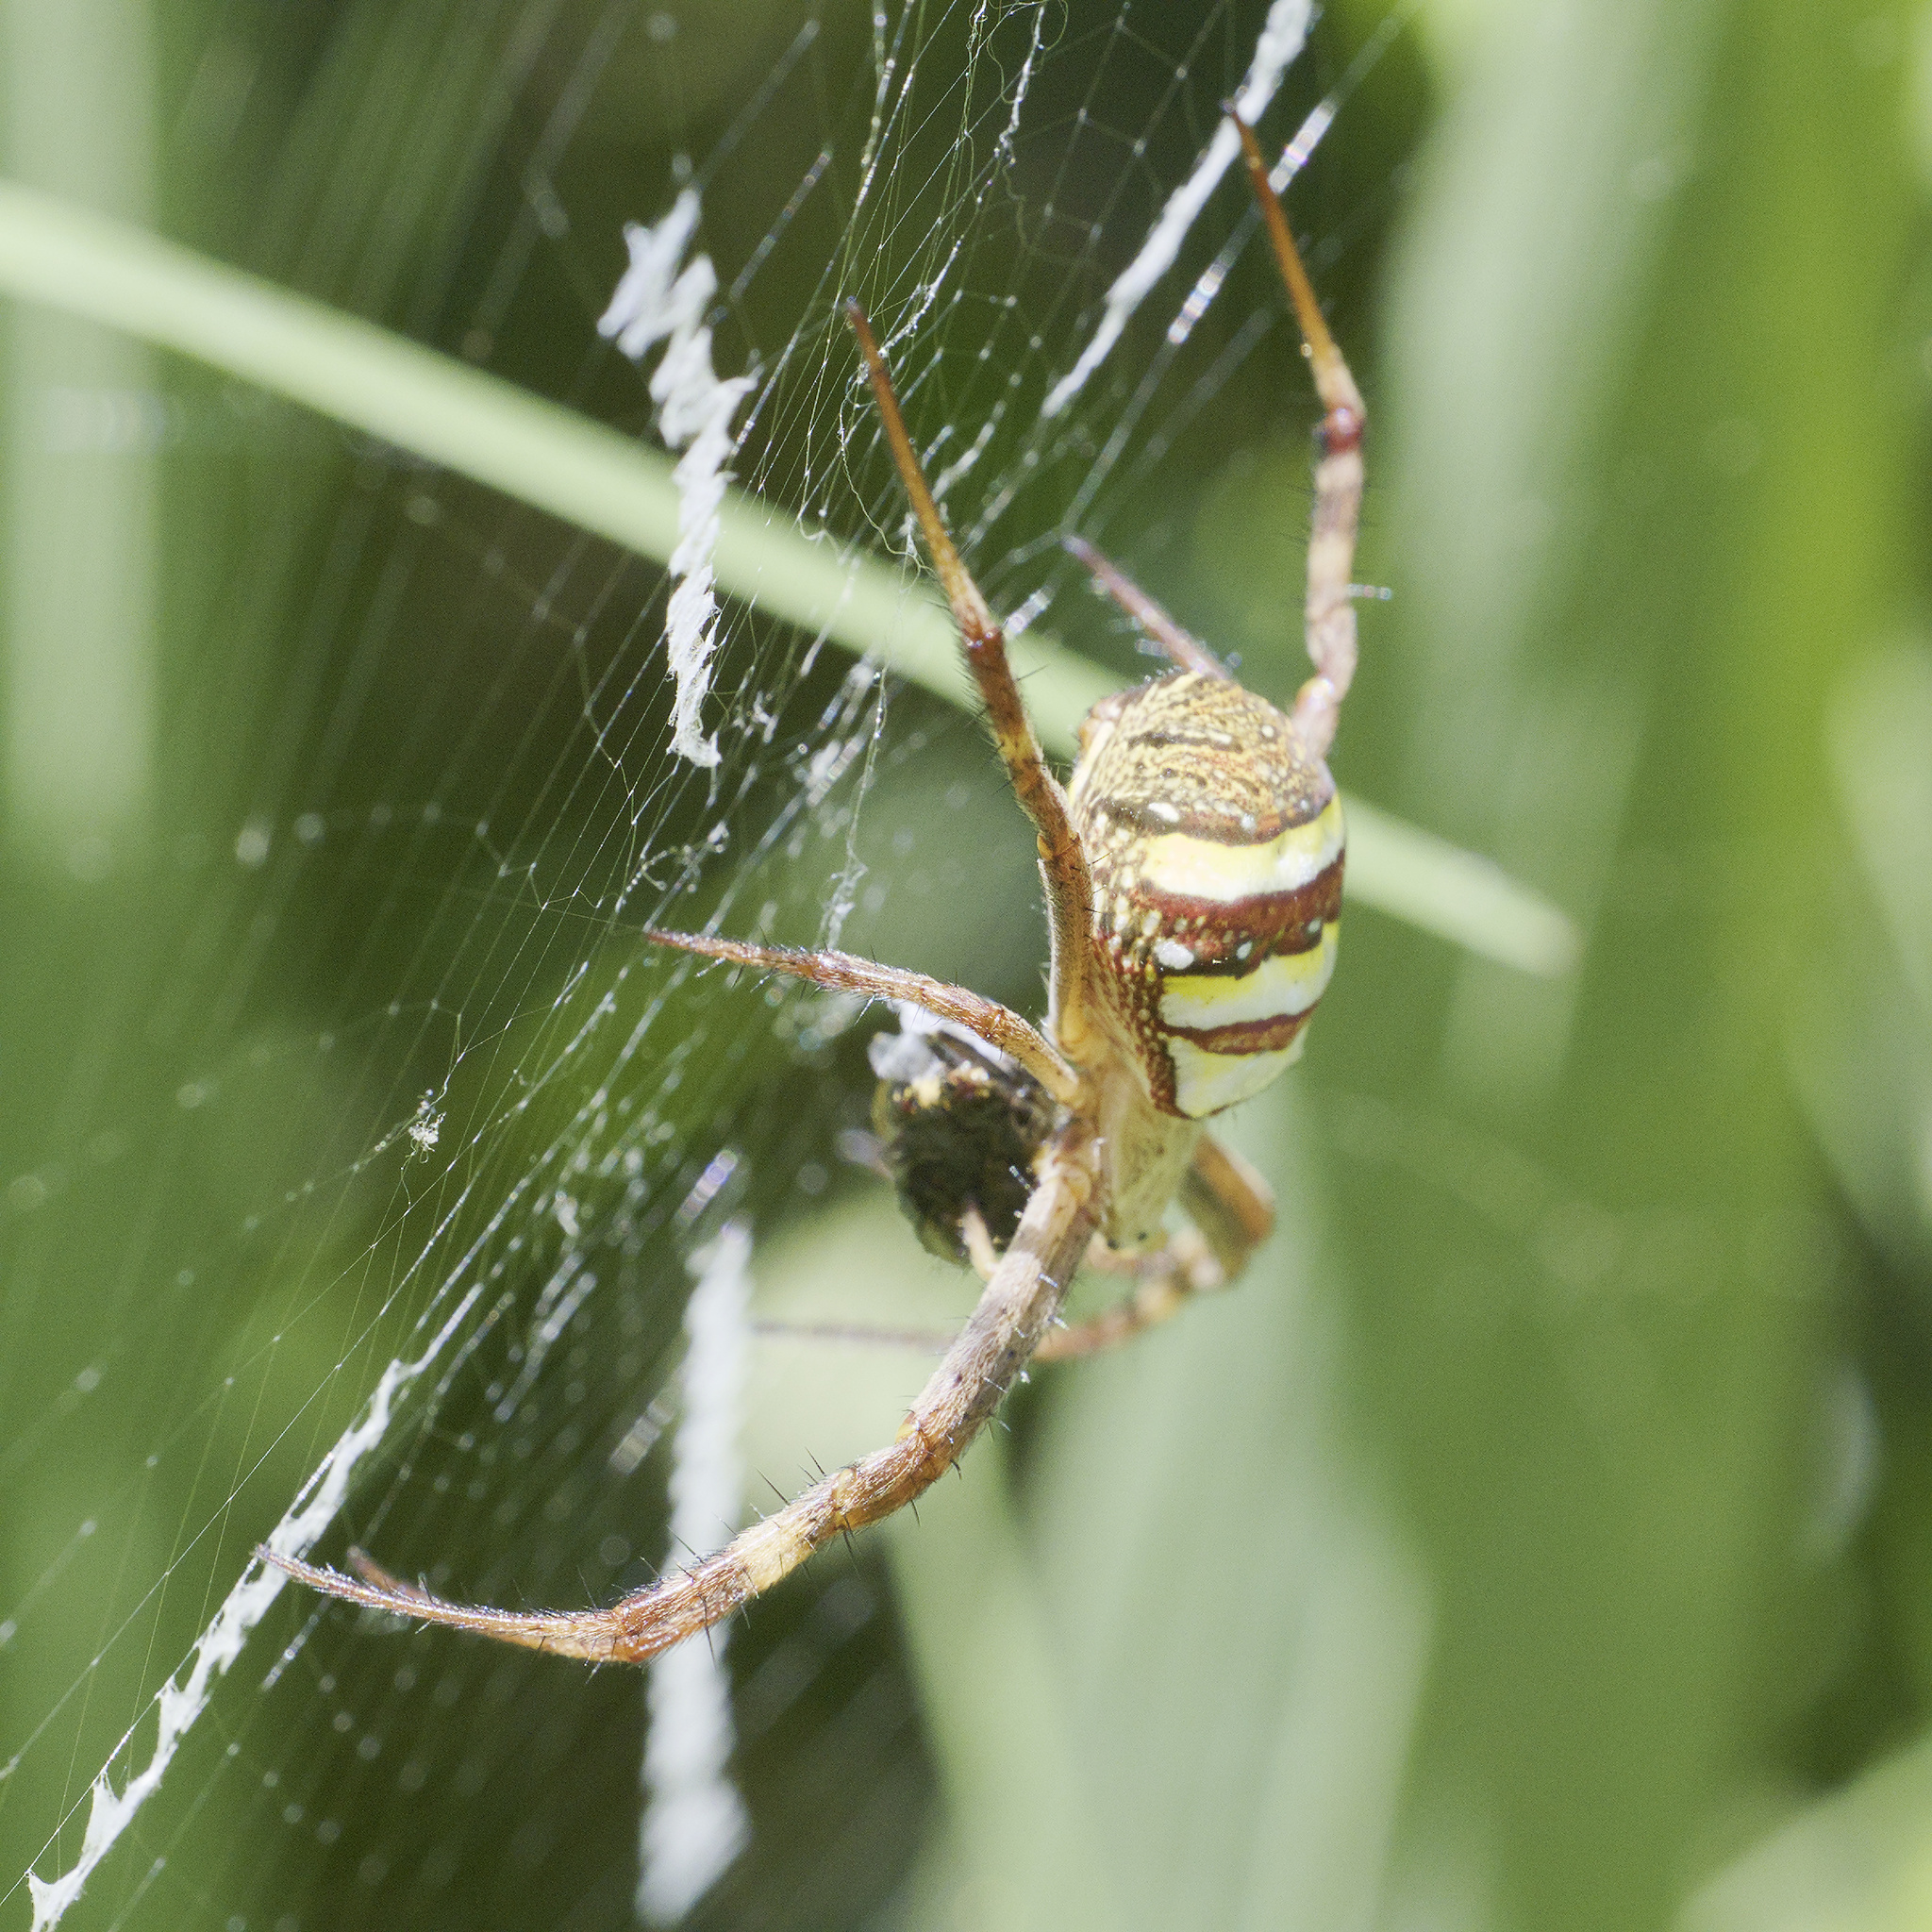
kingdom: Animalia
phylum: Arthropoda
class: Arachnida
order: Araneae
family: Araneidae
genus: Argiope
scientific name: Argiope keyserlingi
